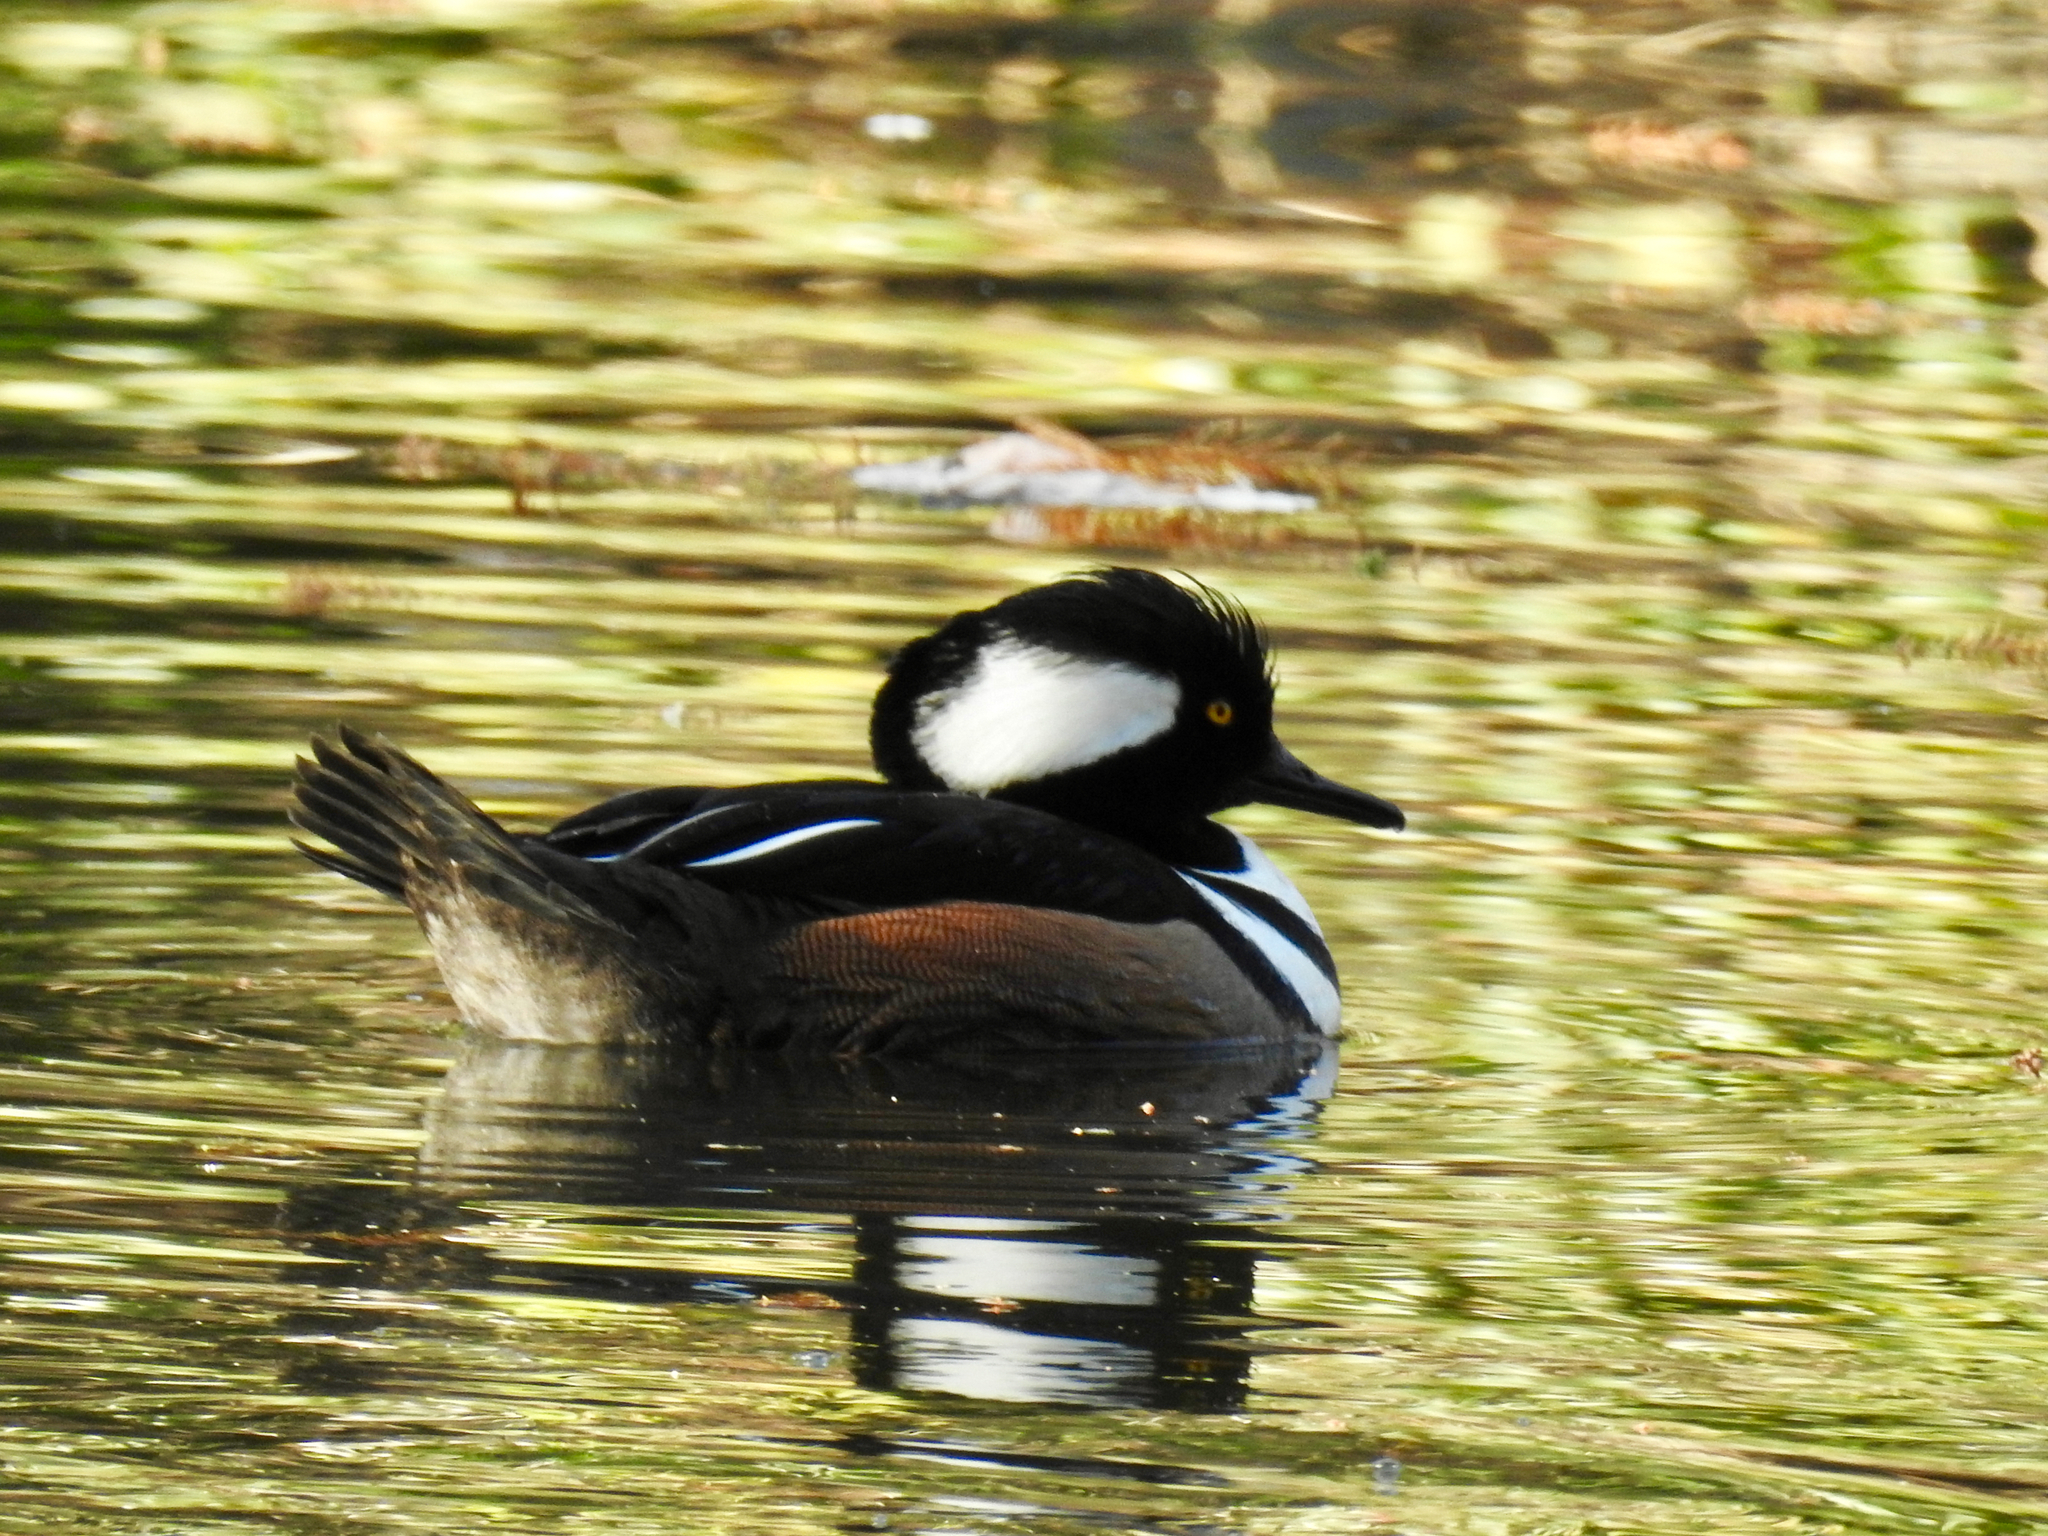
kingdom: Animalia
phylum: Chordata
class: Aves
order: Anseriformes
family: Anatidae
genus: Lophodytes
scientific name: Lophodytes cucullatus
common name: Hooded merganser
